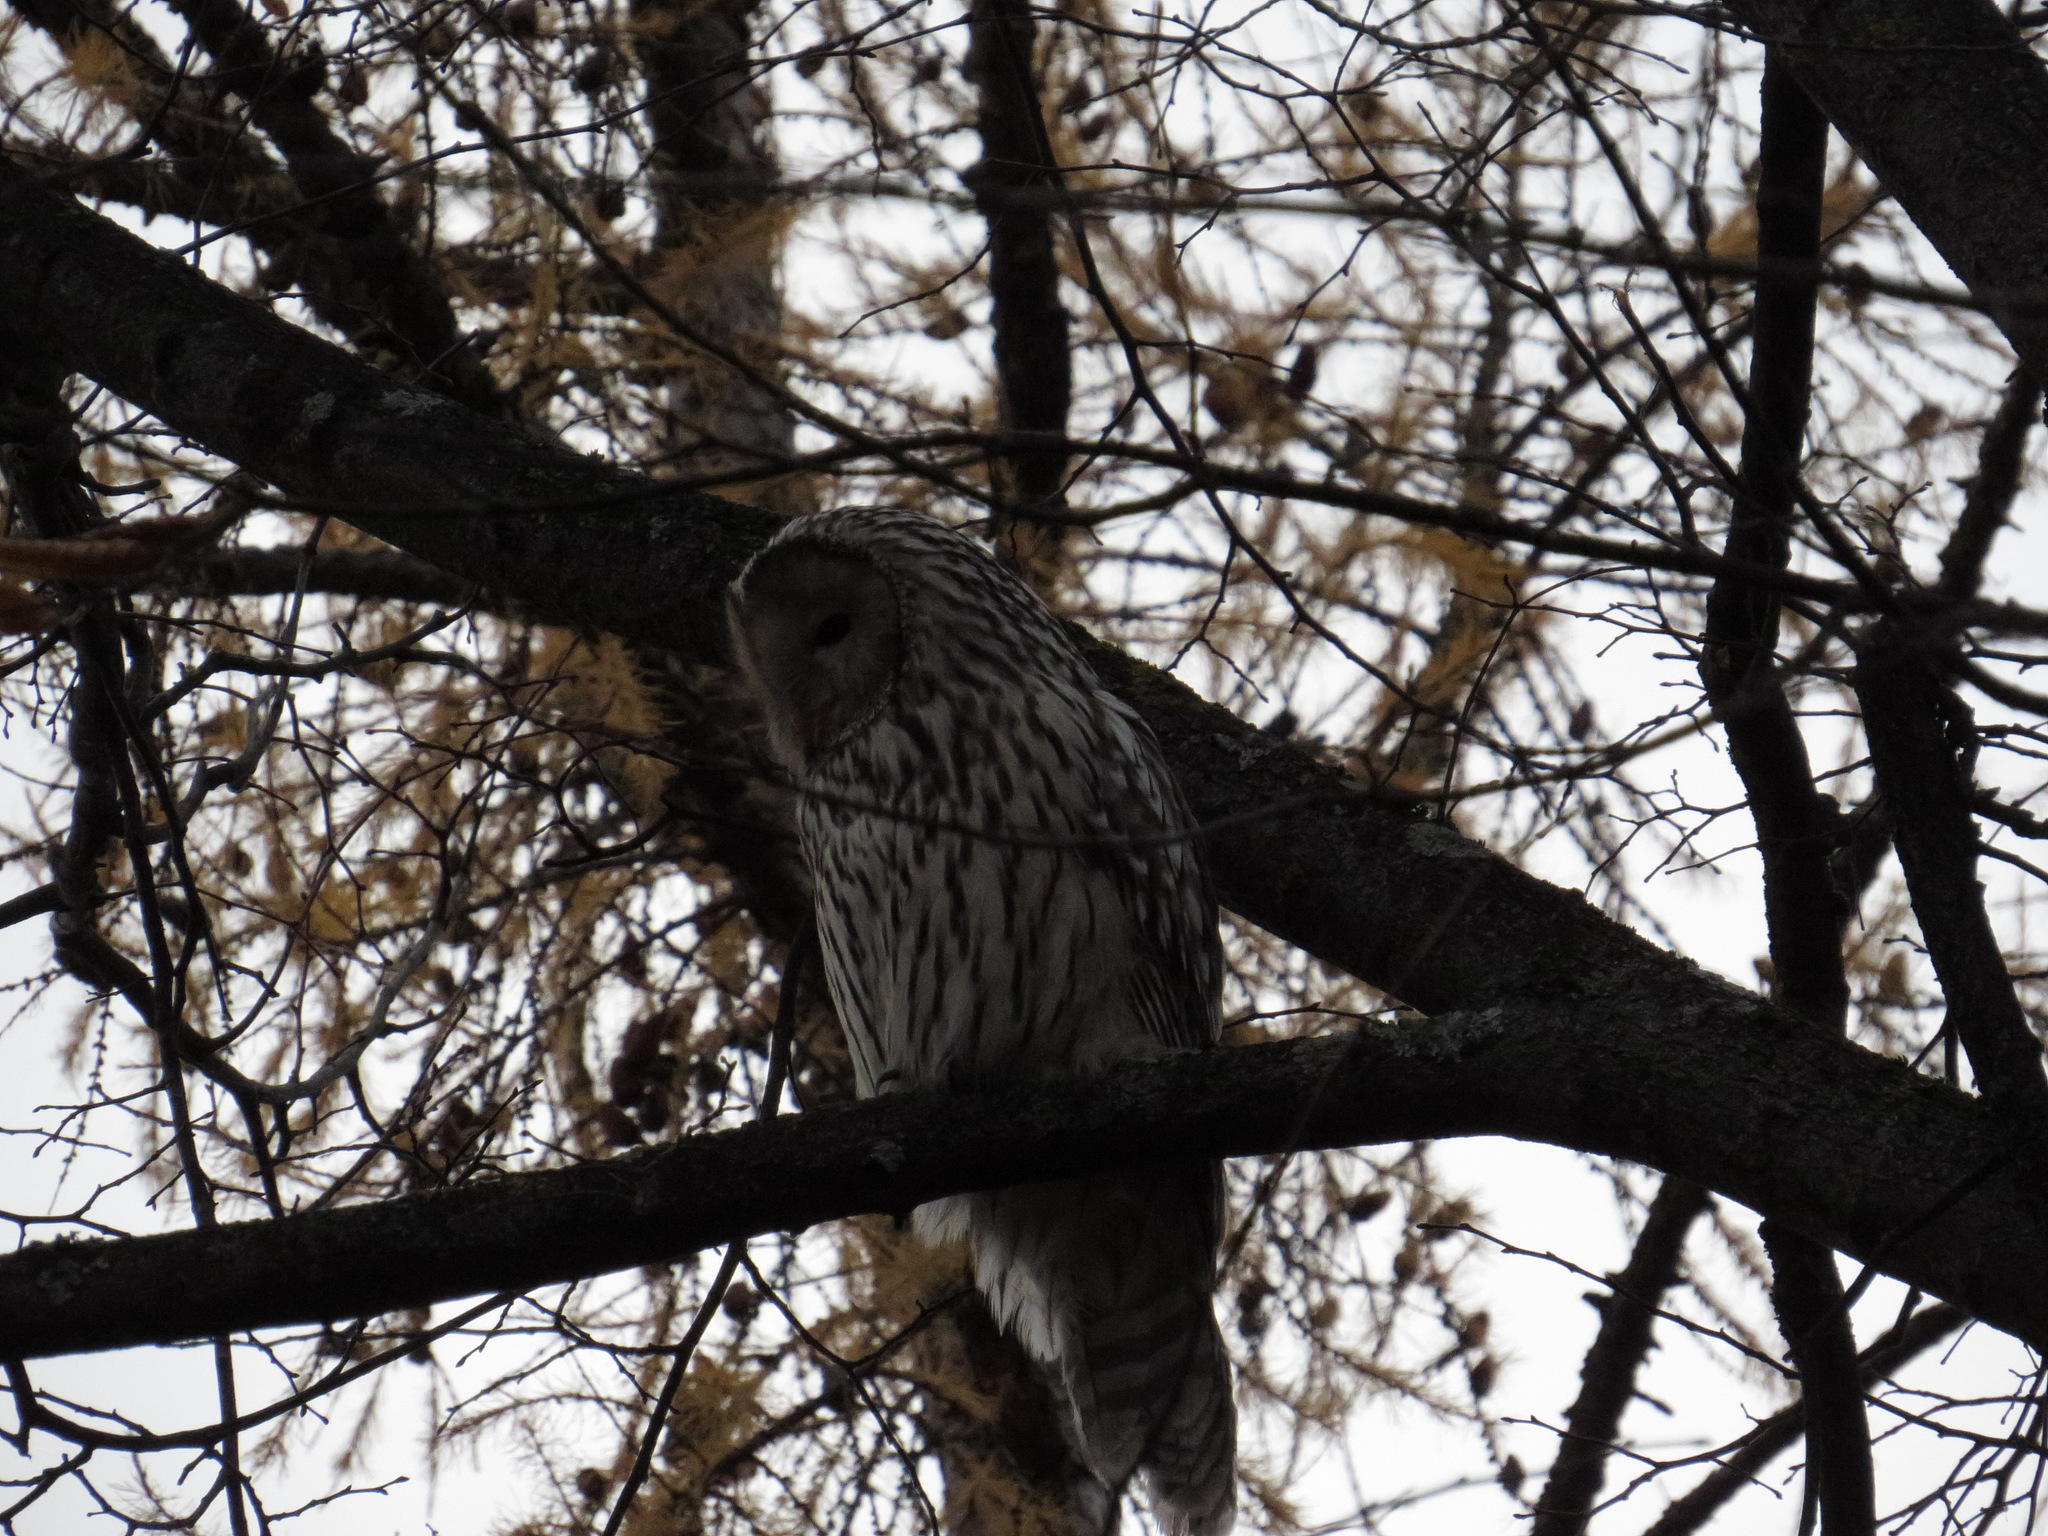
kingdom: Animalia
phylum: Chordata
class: Aves
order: Strigiformes
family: Strigidae
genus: Strix
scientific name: Strix uralensis
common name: Ural owl
